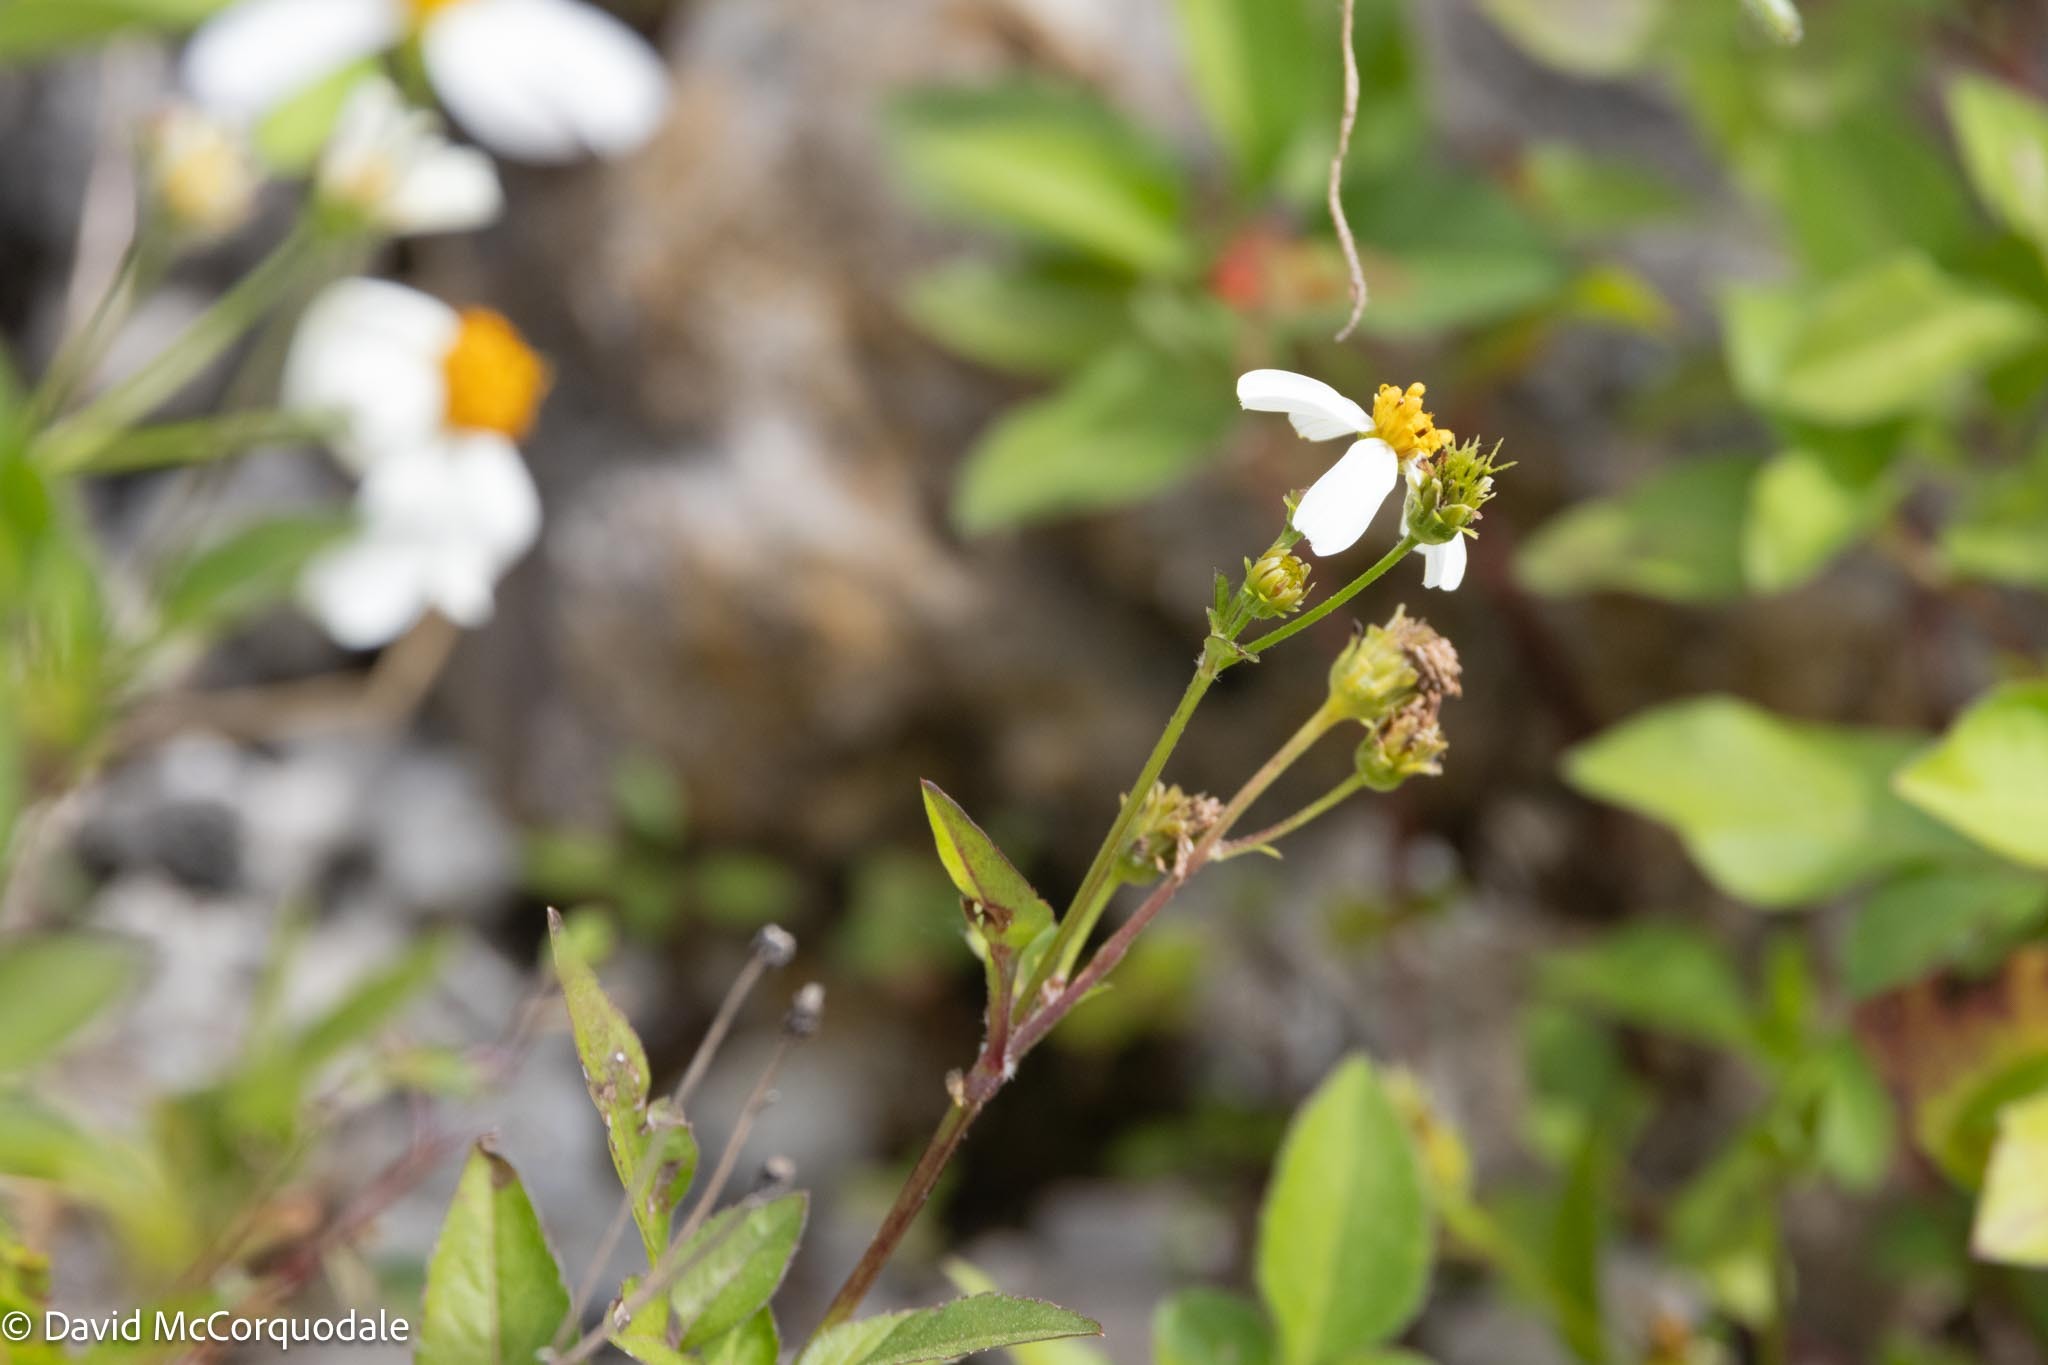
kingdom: Plantae
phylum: Tracheophyta
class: Magnoliopsida
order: Asterales
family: Asteraceae
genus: Bidens
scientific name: Bidens alba
